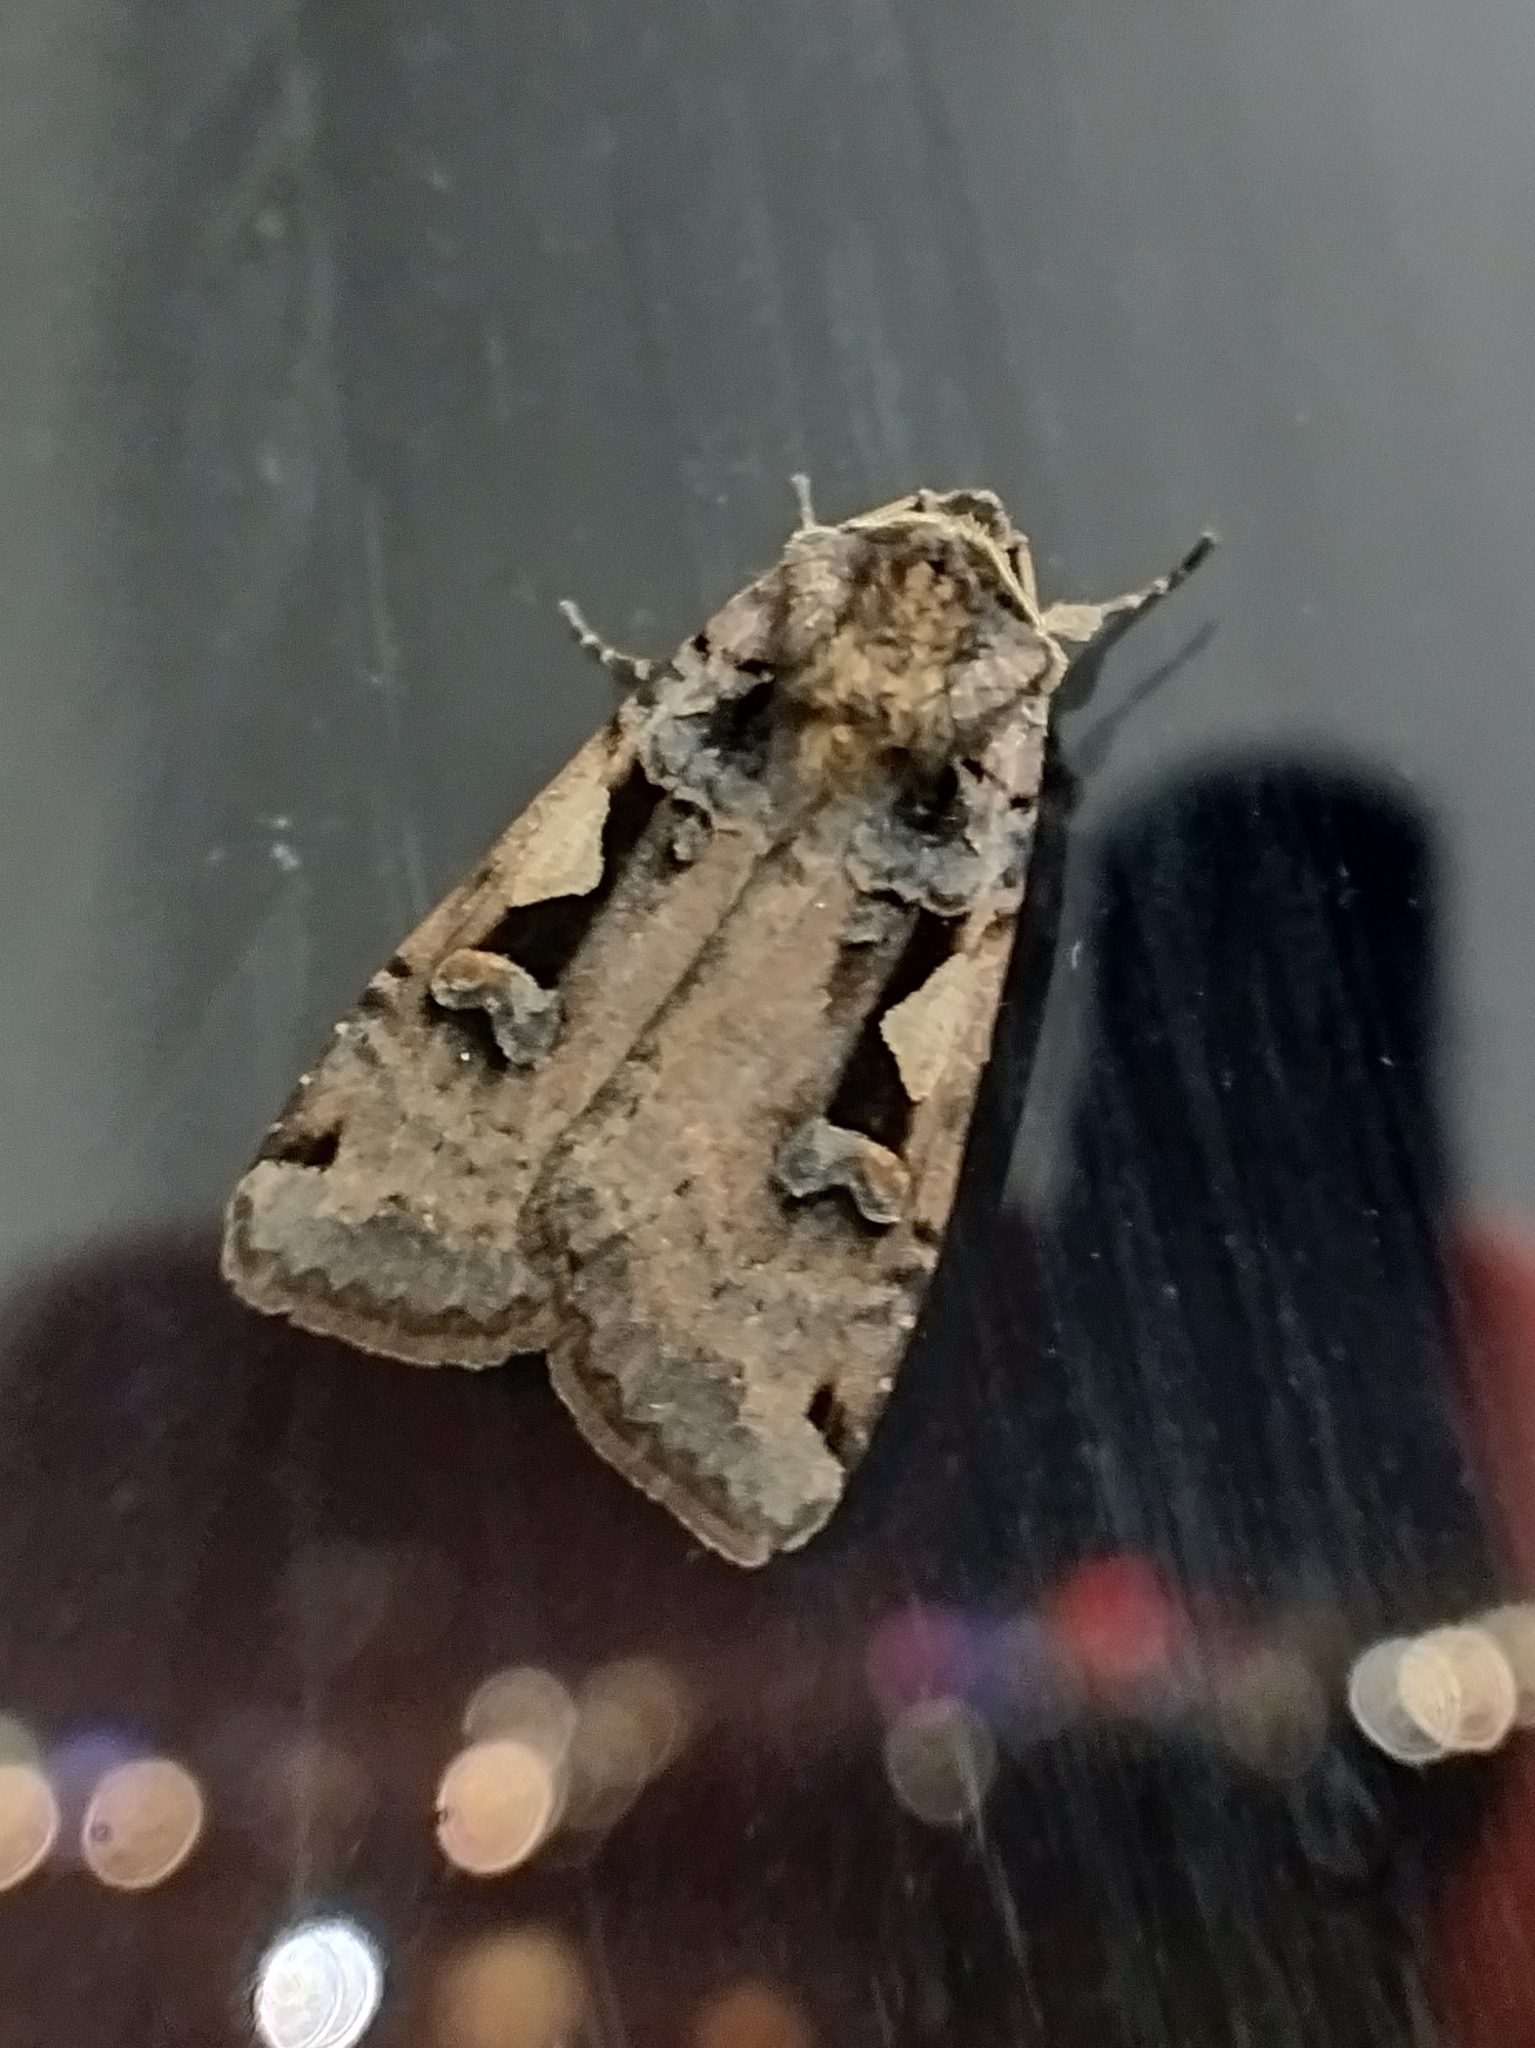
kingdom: Animalia
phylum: Arthropoda
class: Insecta
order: Lepidoptera
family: Noctuidae
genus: Xestia
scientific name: Xestia c-nigrum
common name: Setaceous hebrew character
